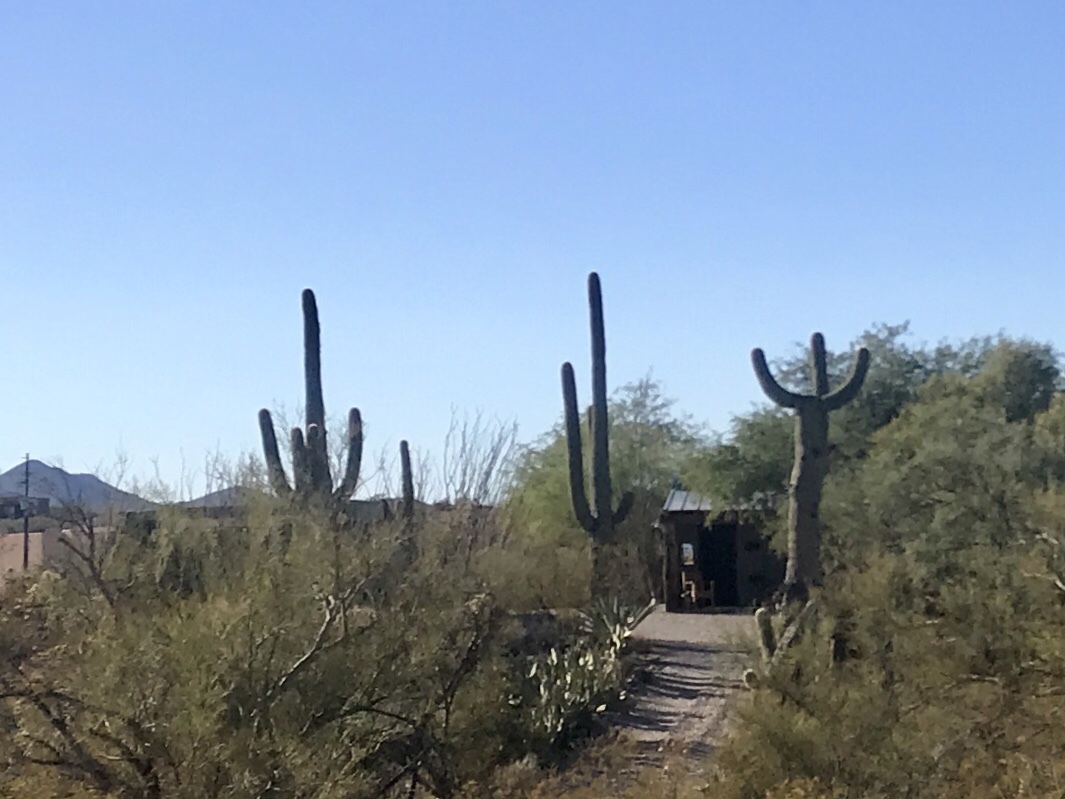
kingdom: Plantae
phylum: Tracheophyta
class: Magnoliopsida
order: Caryophyllales
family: Cactaceae
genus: Carnegiea
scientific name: Carnegiea gigantea
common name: Saguaro
